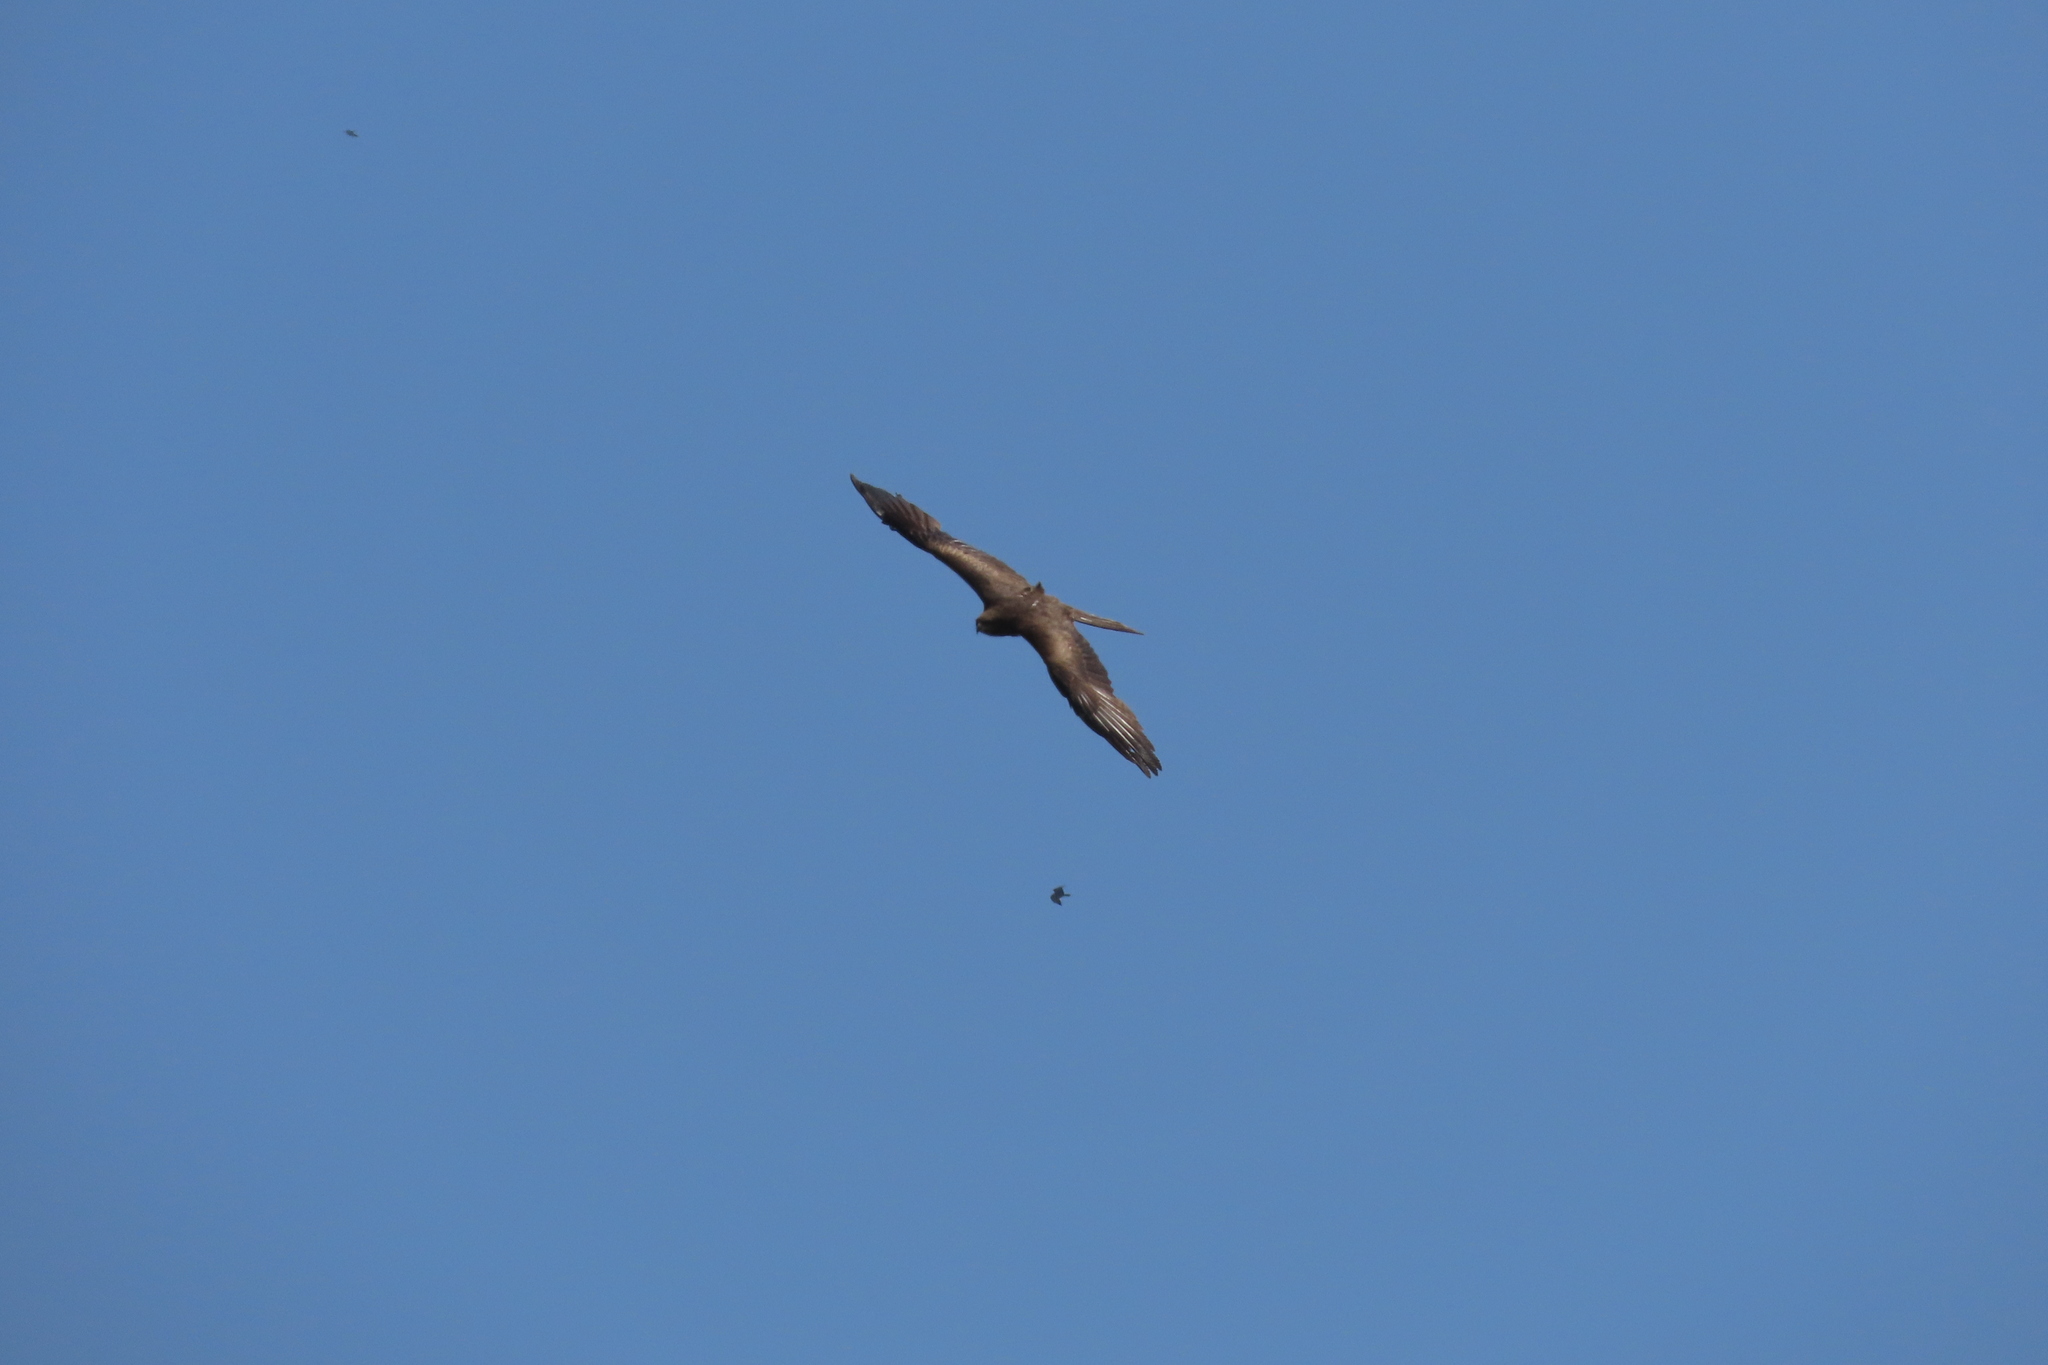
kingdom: Animalia
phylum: Chordata
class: Aves
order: Accipitriformes
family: Accipitridae
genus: Milvus
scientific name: Milvus migrans
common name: Black kite
